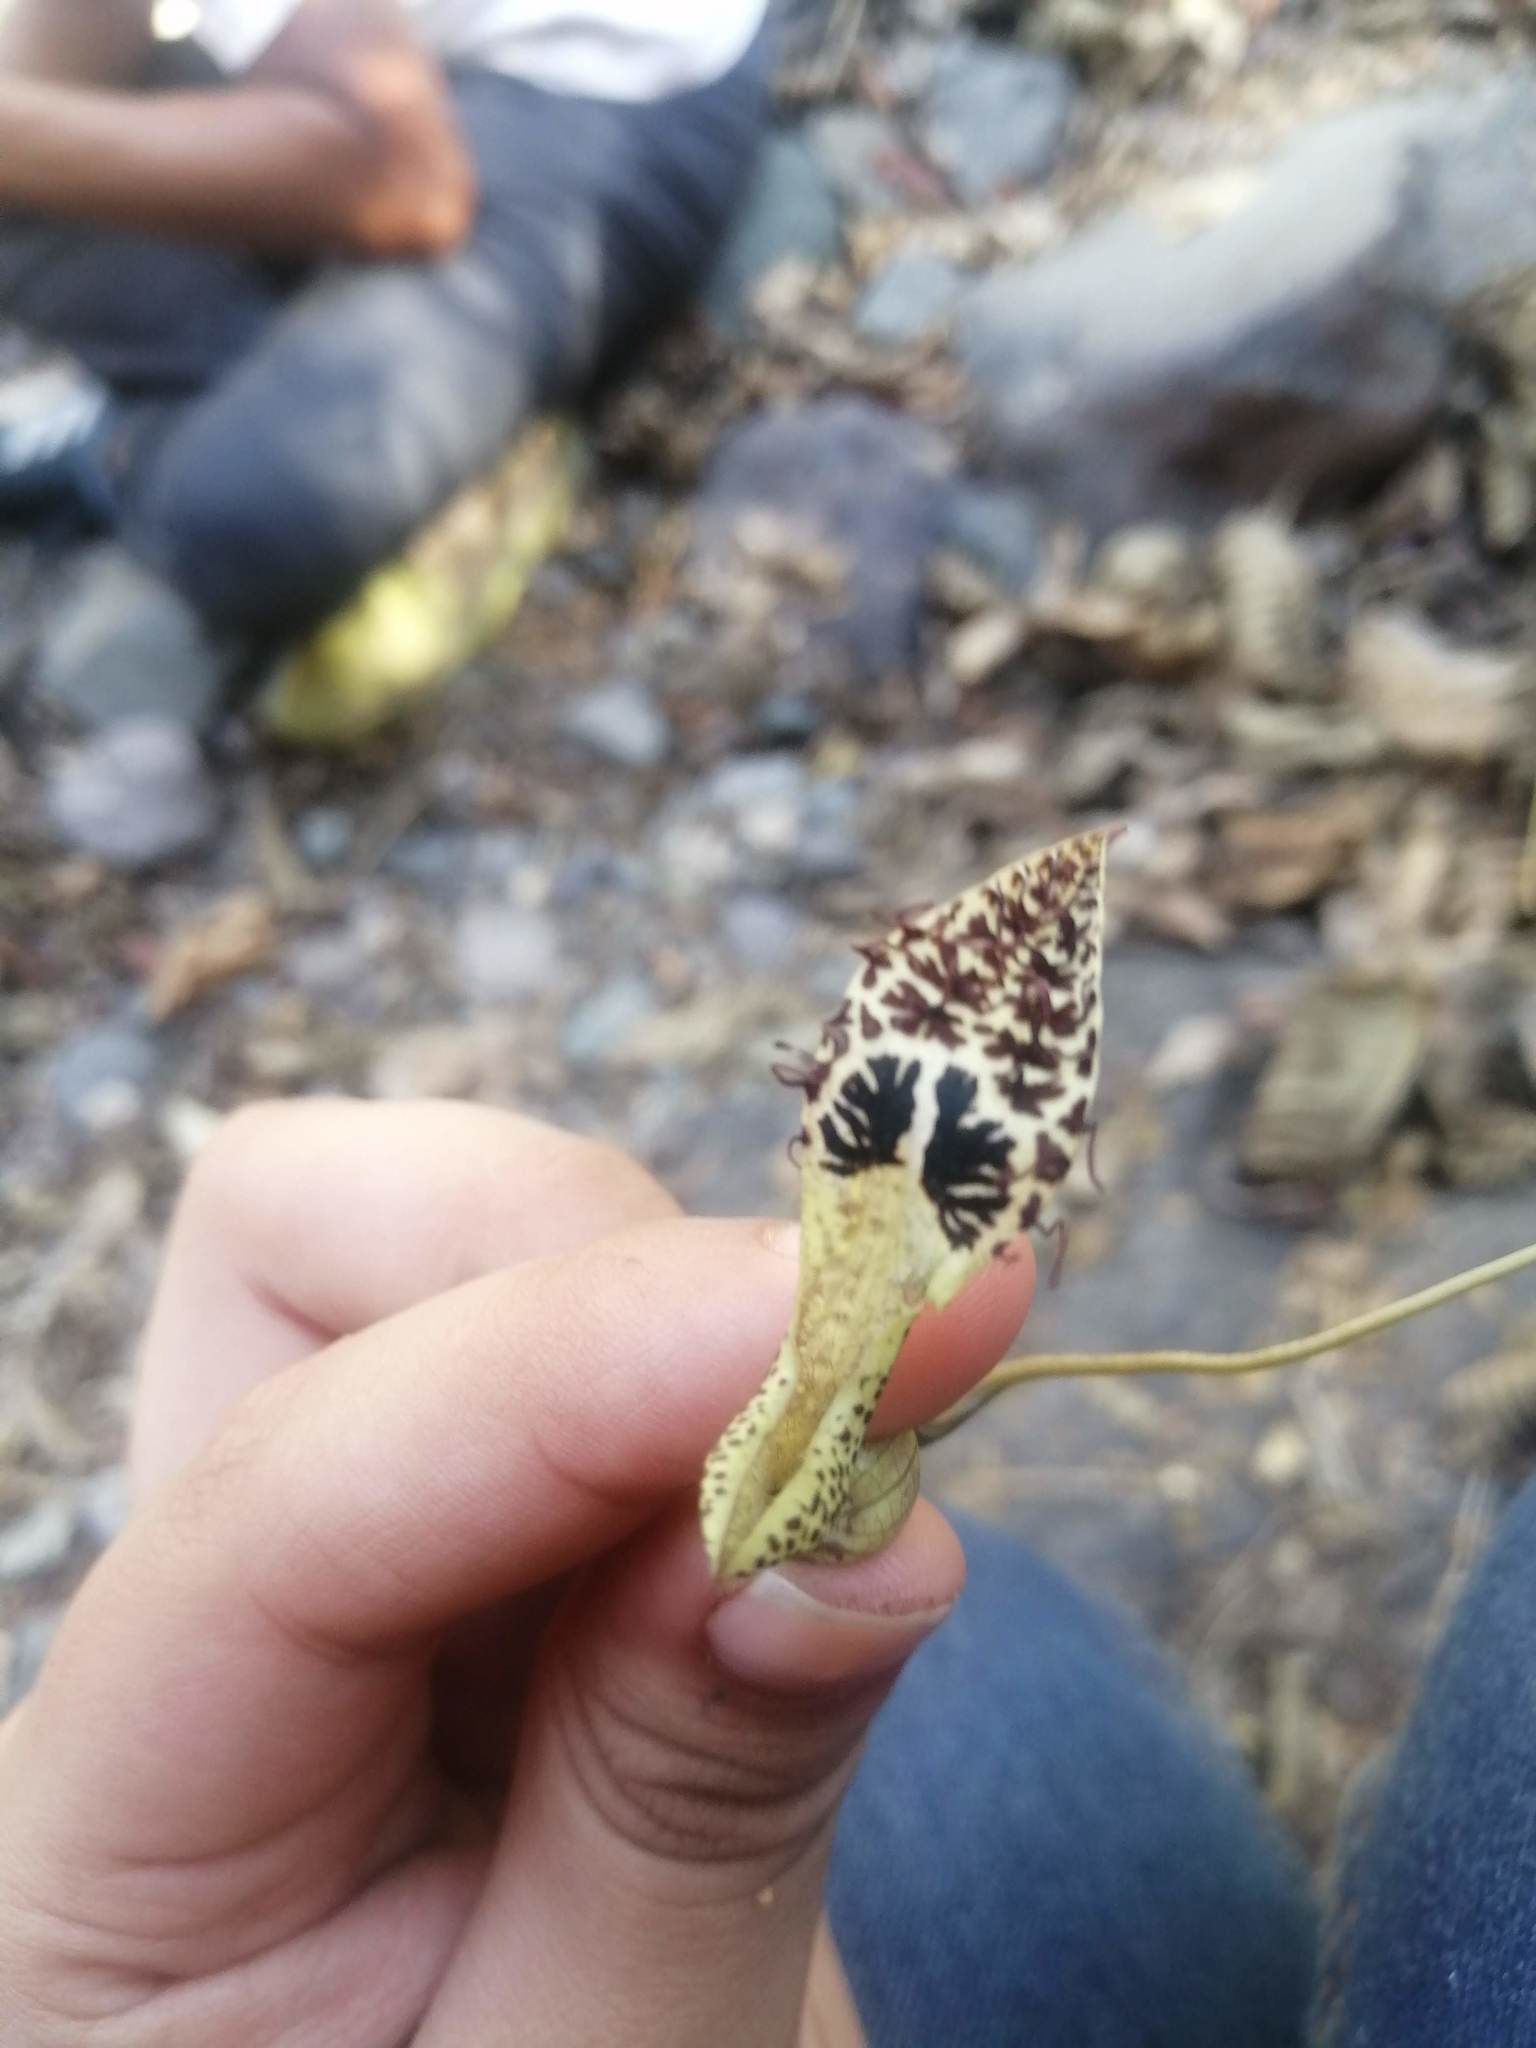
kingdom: Plantae
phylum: Tracheophyta
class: Magnoliopsida
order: Piperales
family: Aristolochiaceae
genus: Aristolochia
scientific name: Aristolochia taliscana
